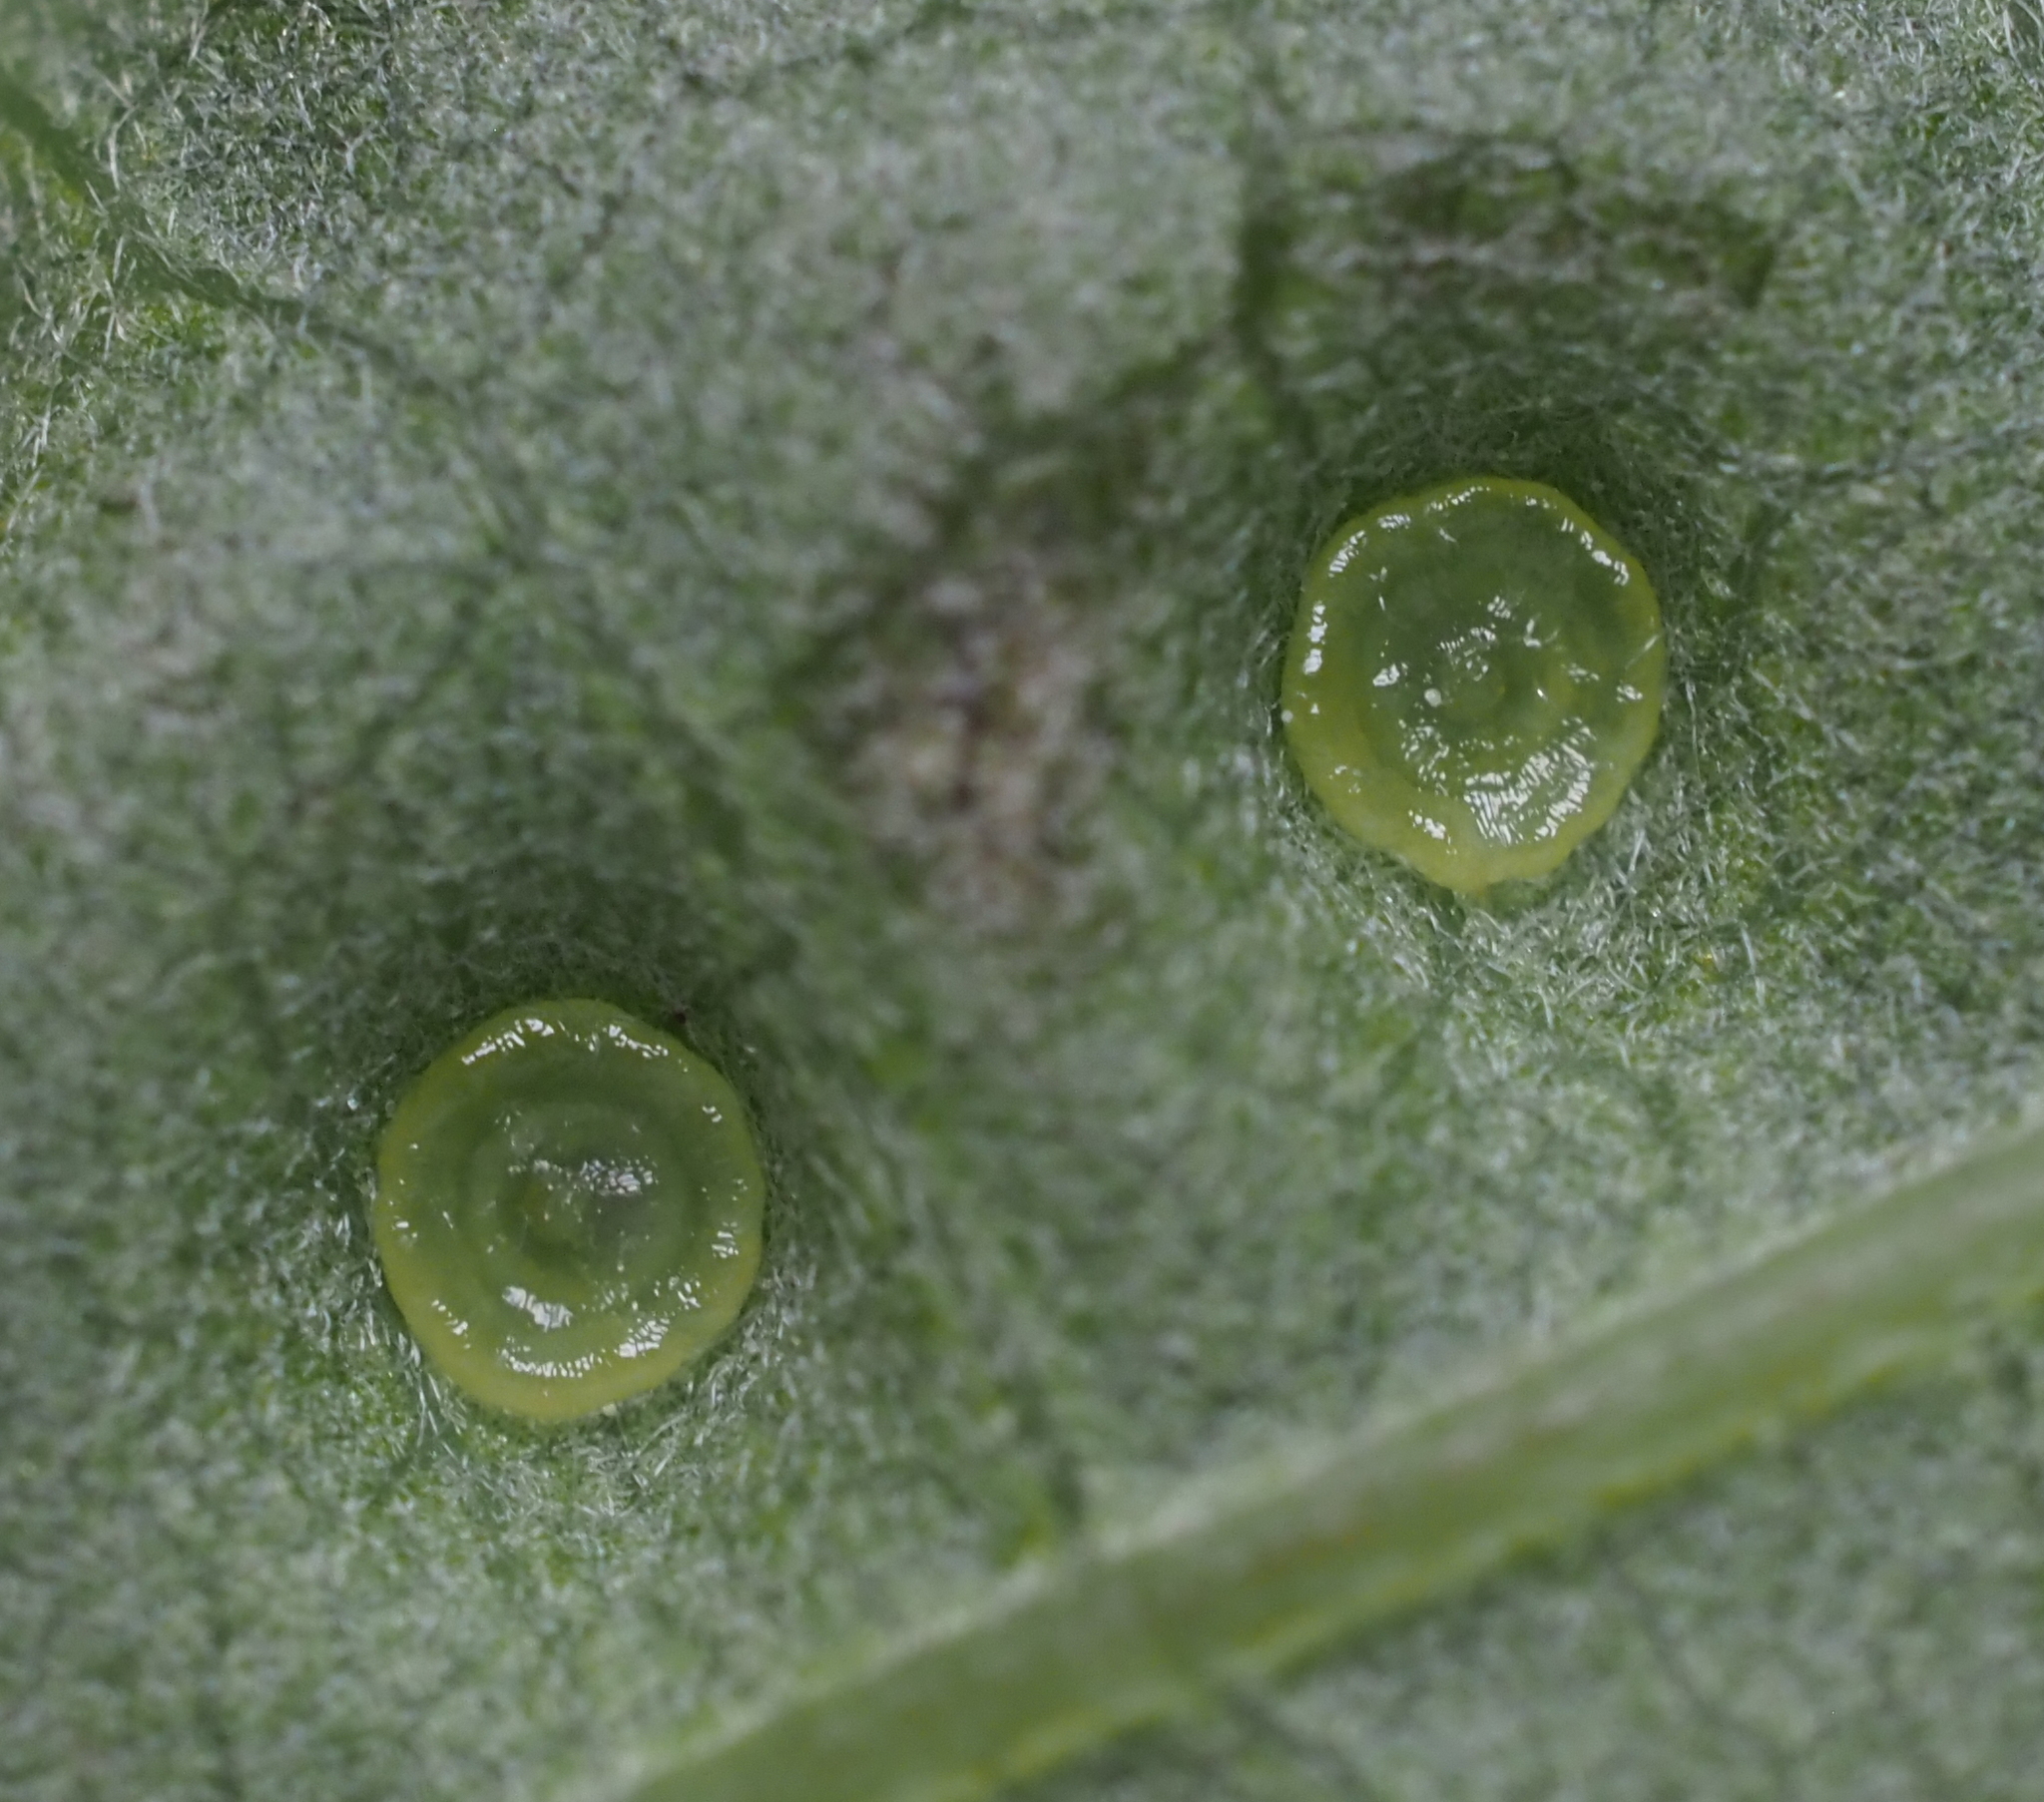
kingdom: Animalia
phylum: Arthropoda
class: Insecta
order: Hymenoptera
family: Cynipidae
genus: Neuroterus
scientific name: Neuroterus saltarius
